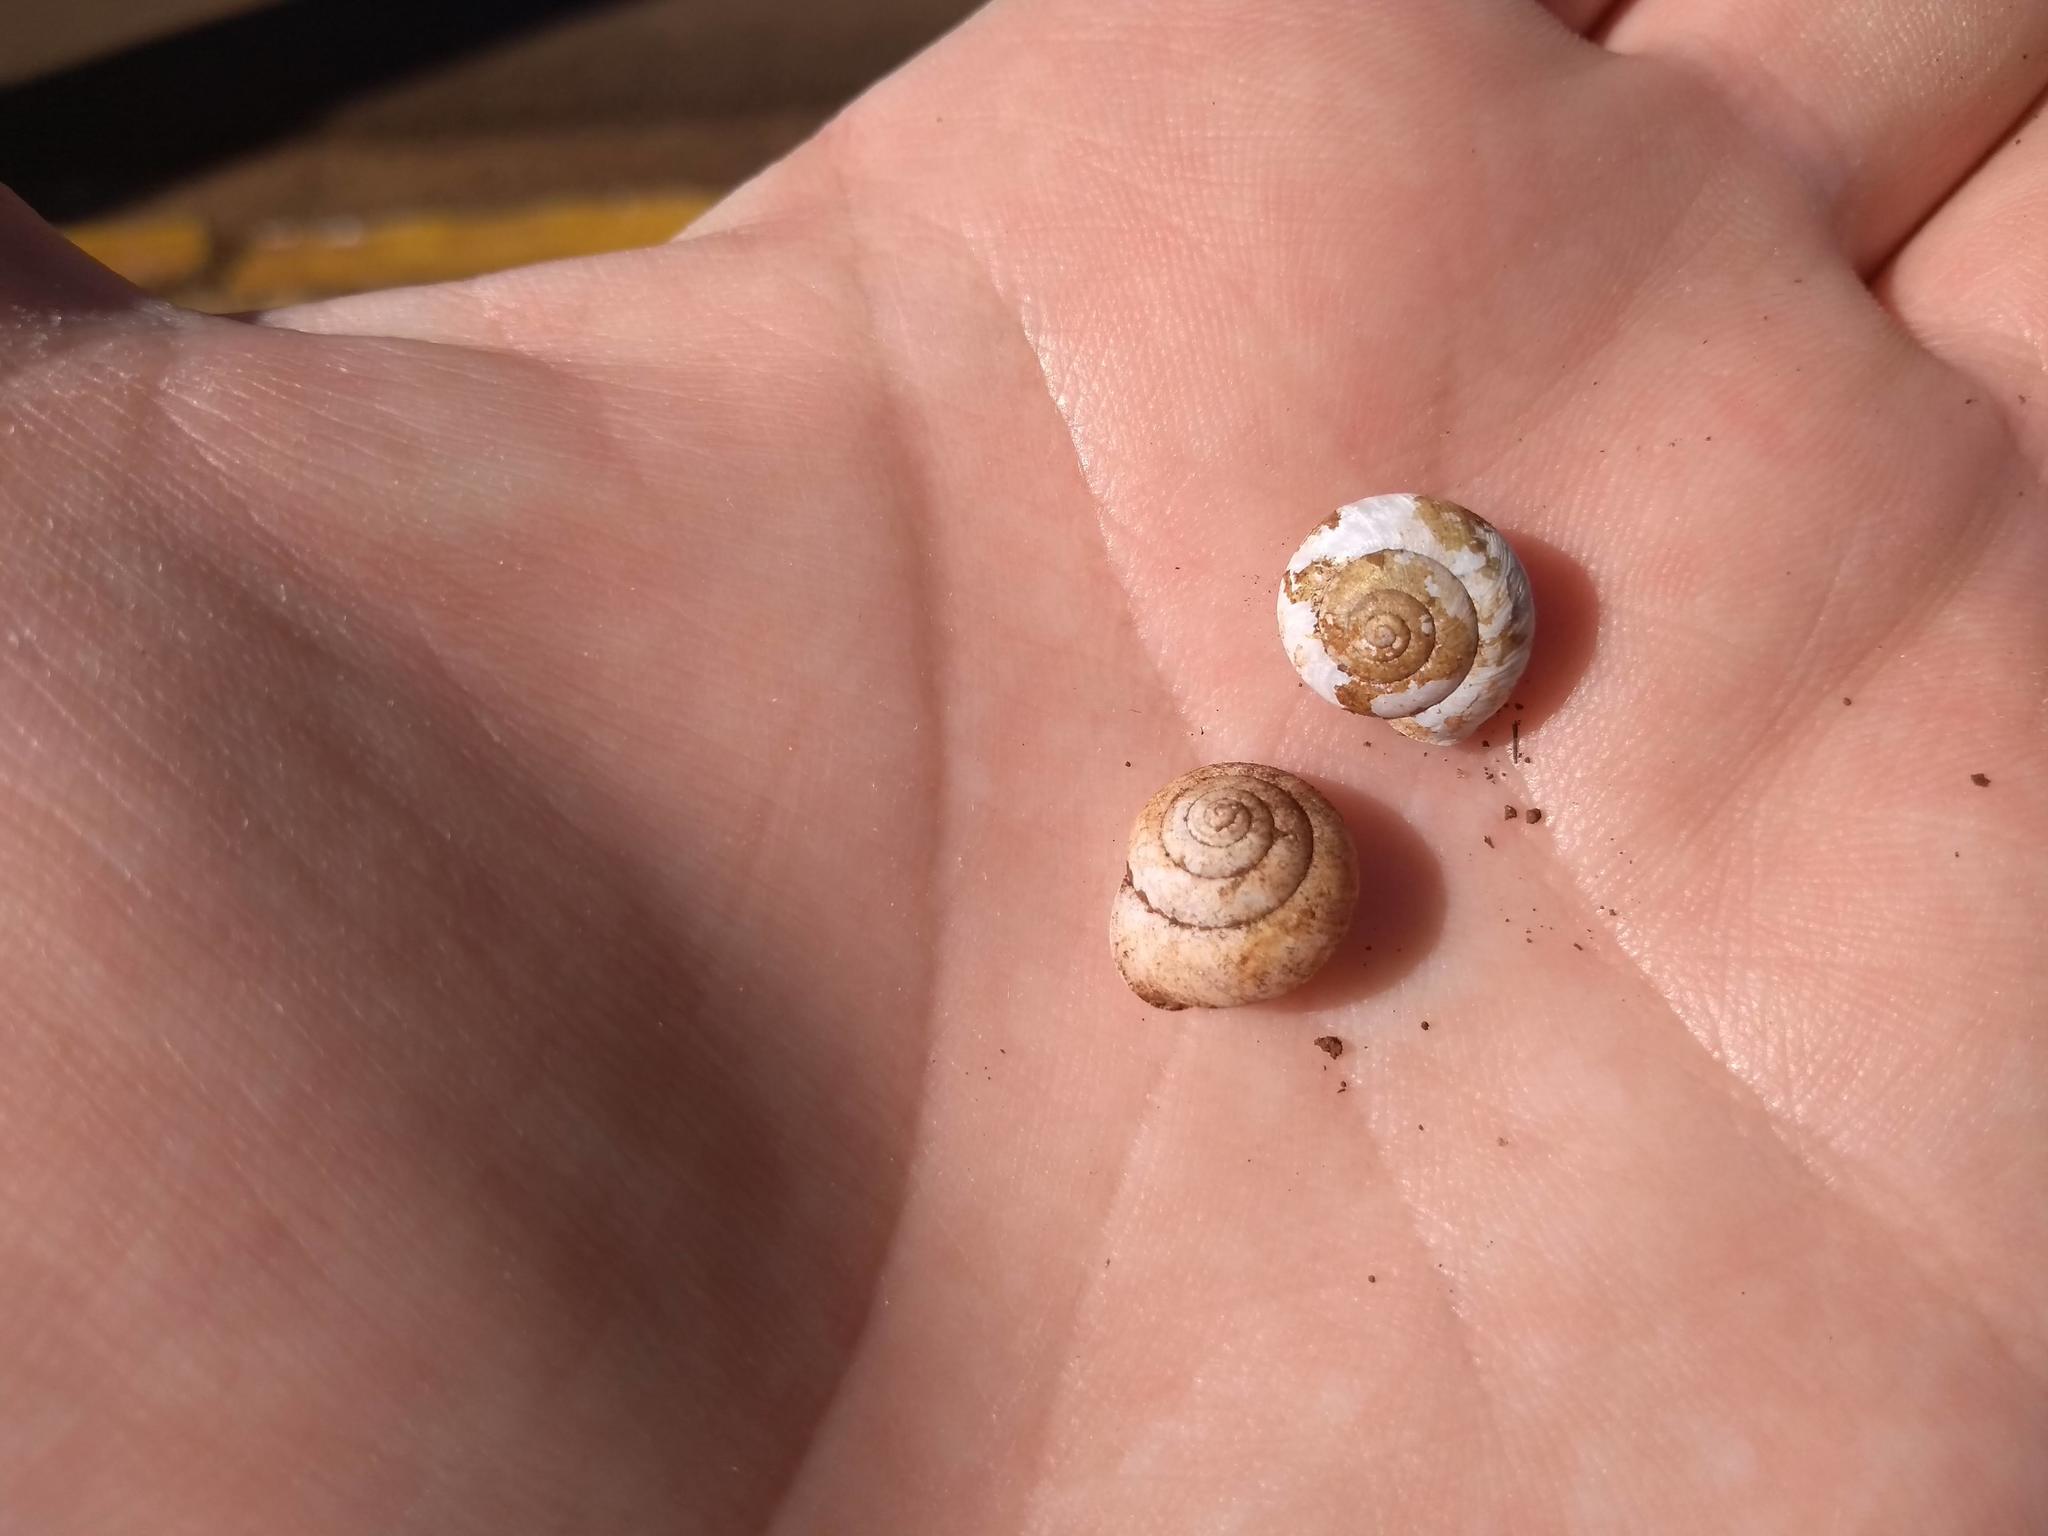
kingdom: Animalia
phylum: Mollusca
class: Gastropoda
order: Stylommatophora
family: Camaenidae
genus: Bradybaena
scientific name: Bradybaena similaris
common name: Asian trampsnail
